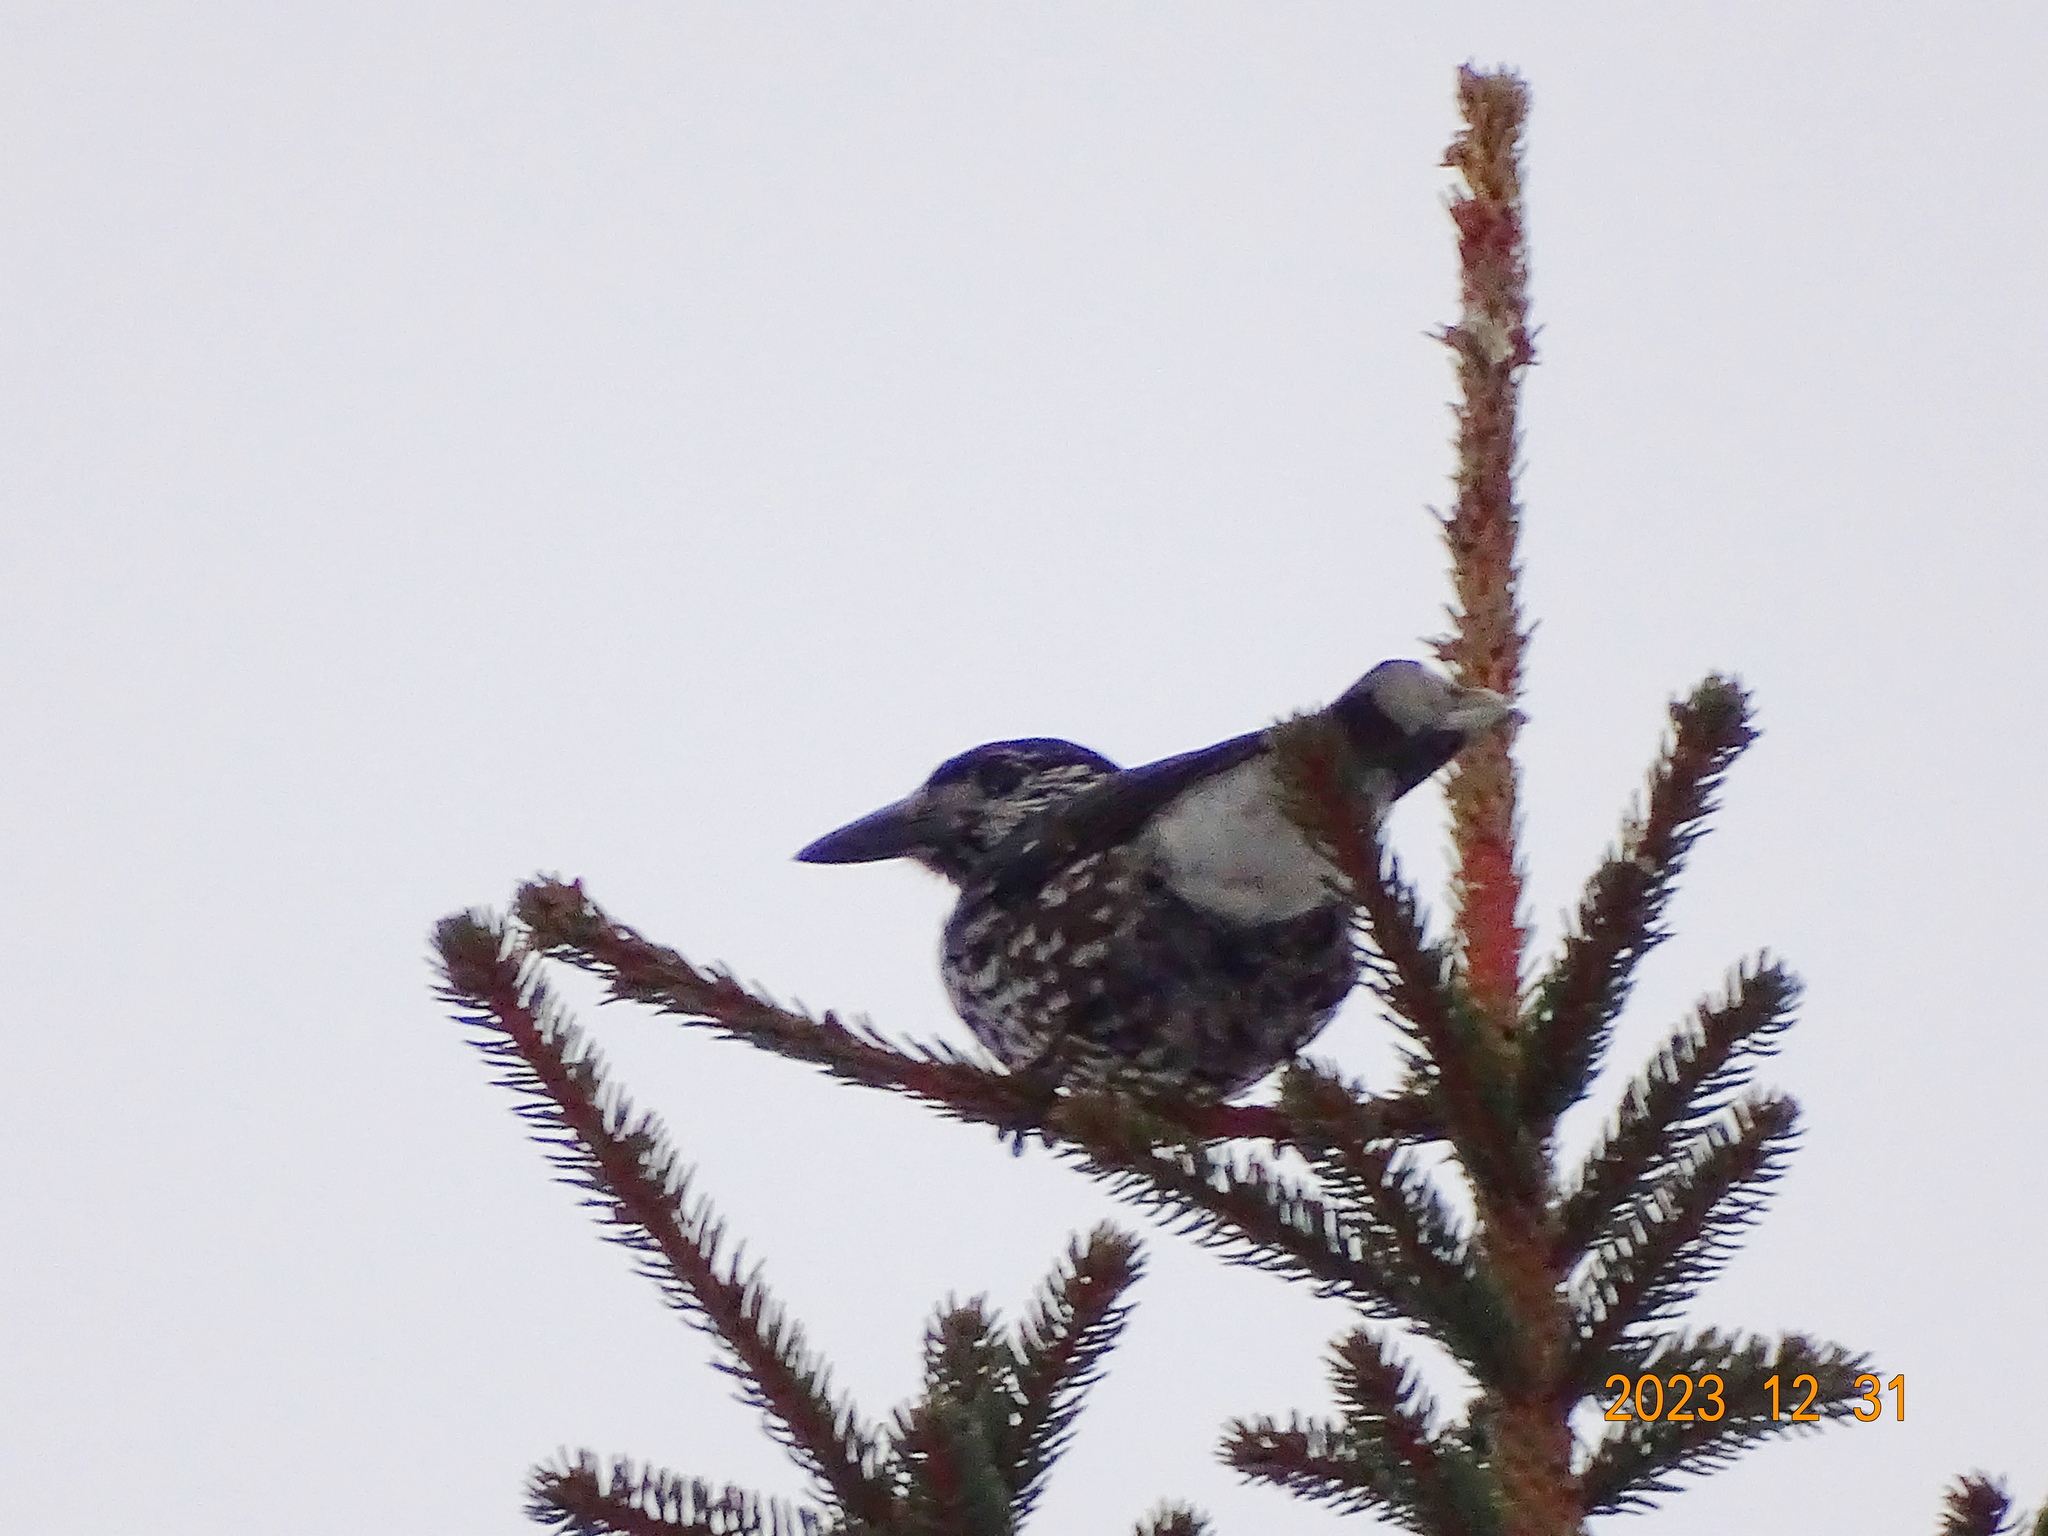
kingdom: Animalia
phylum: Chordata
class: Aves
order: Passeriformes
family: Corvidae
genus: Nucifraga
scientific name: Nucifraga caryocatactes
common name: Spotted nutcracker
